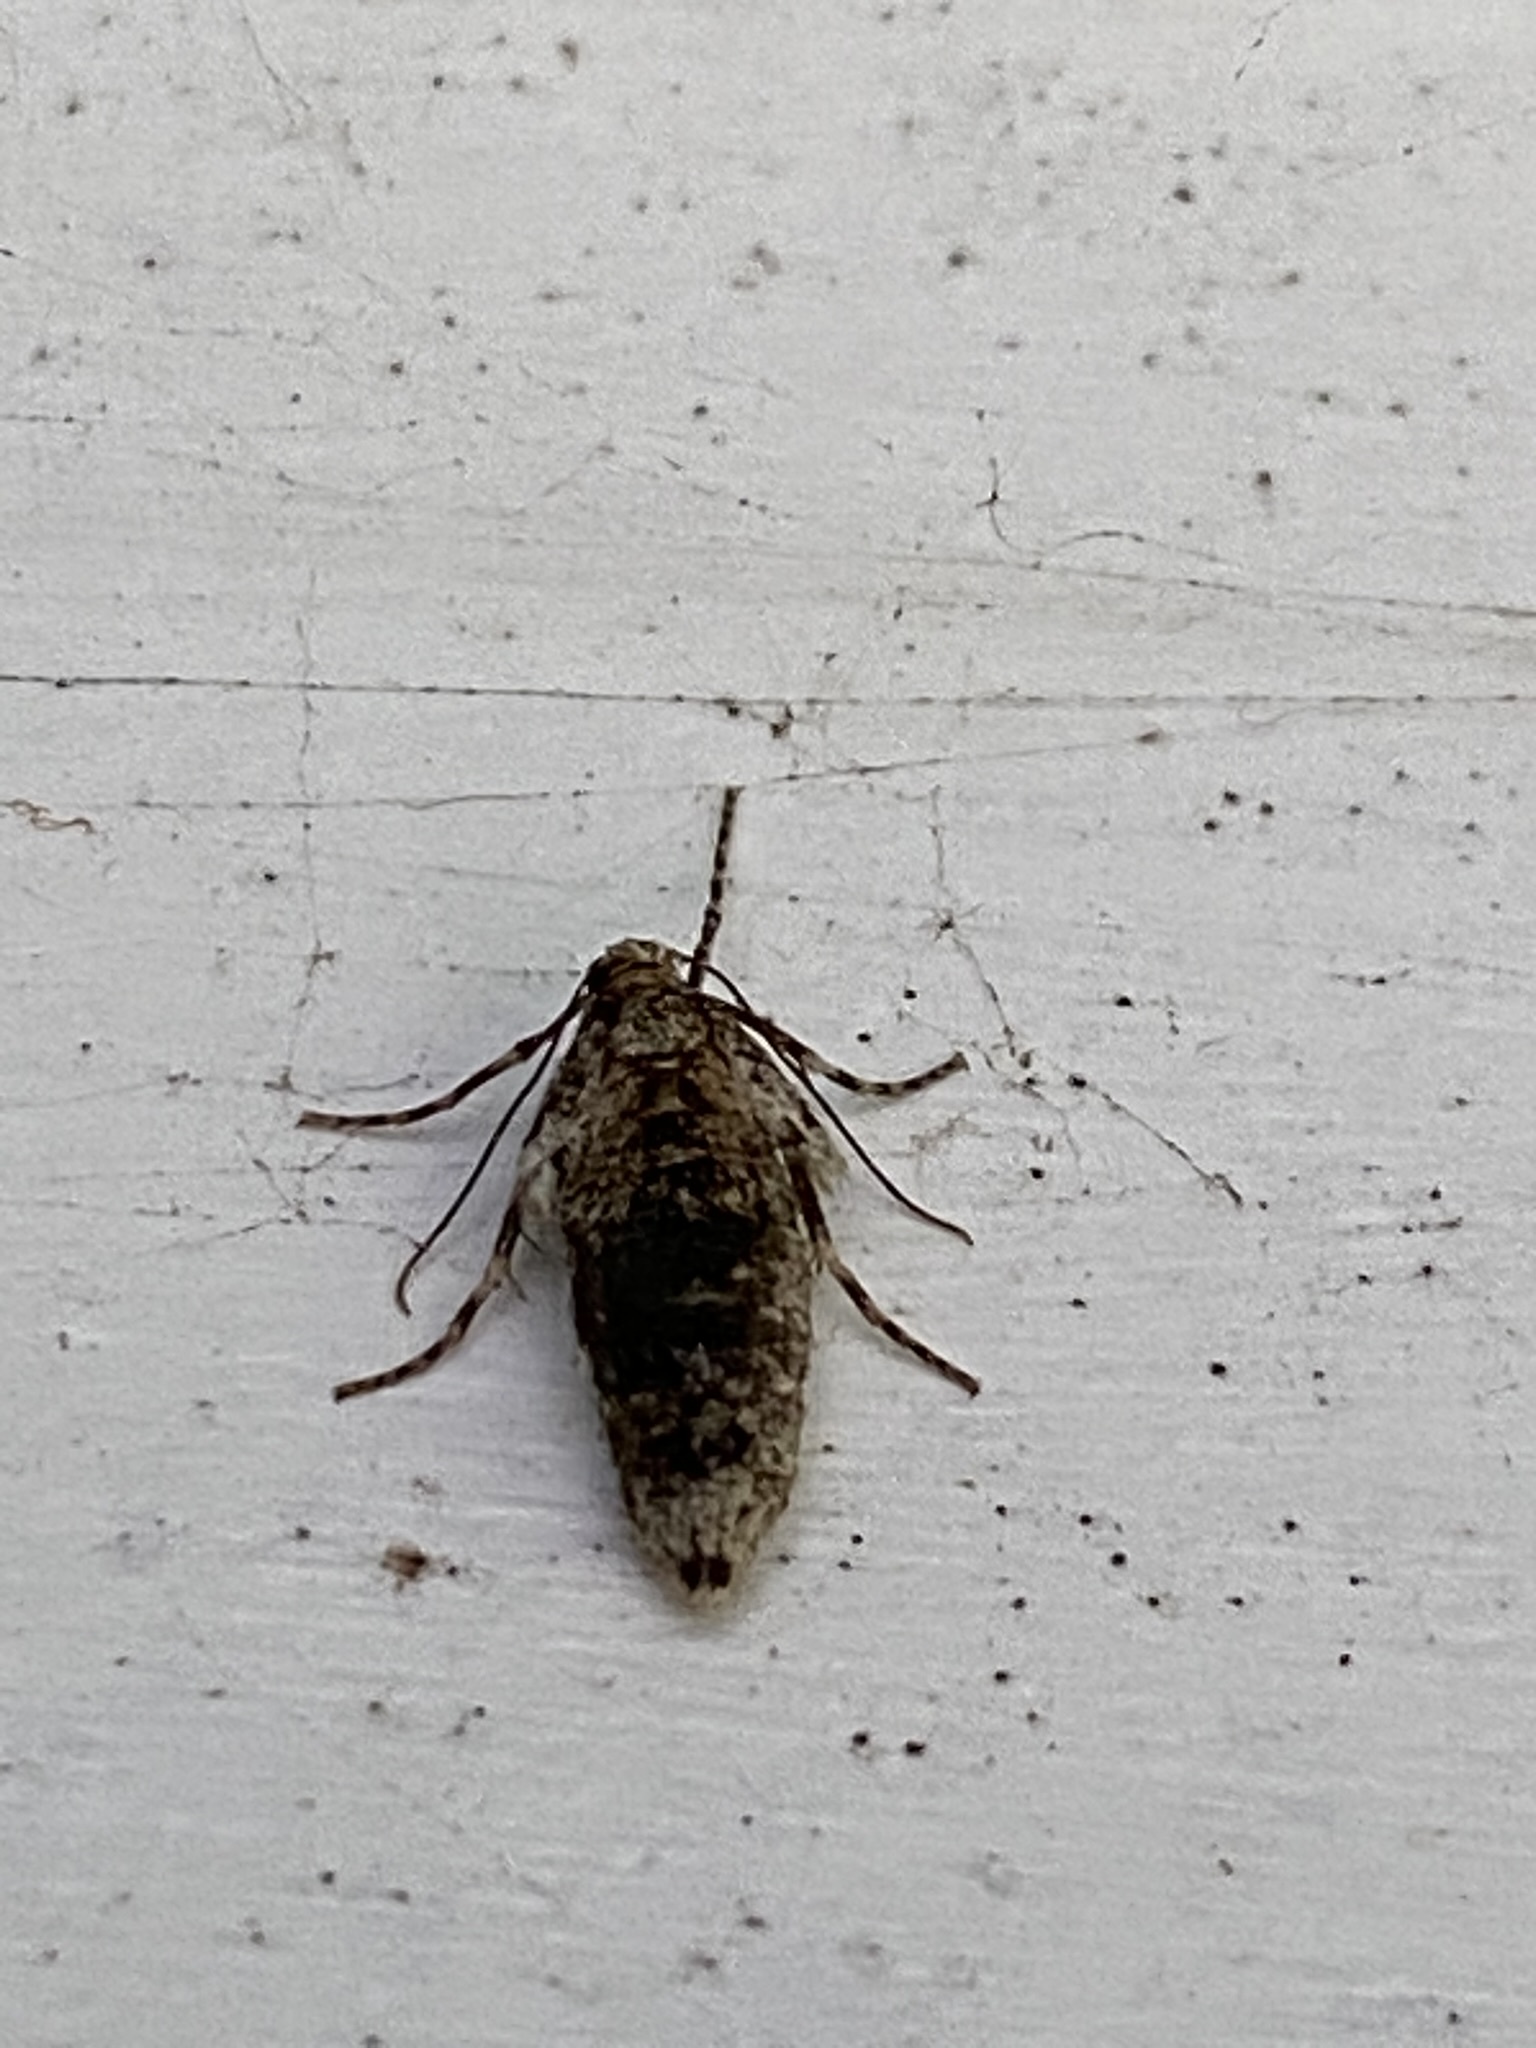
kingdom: Animalia
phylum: Arthropoda
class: Insecta
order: Lepidoptera
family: Geometridae
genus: Operophtera
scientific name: Operophtera brumata
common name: Winter moth
